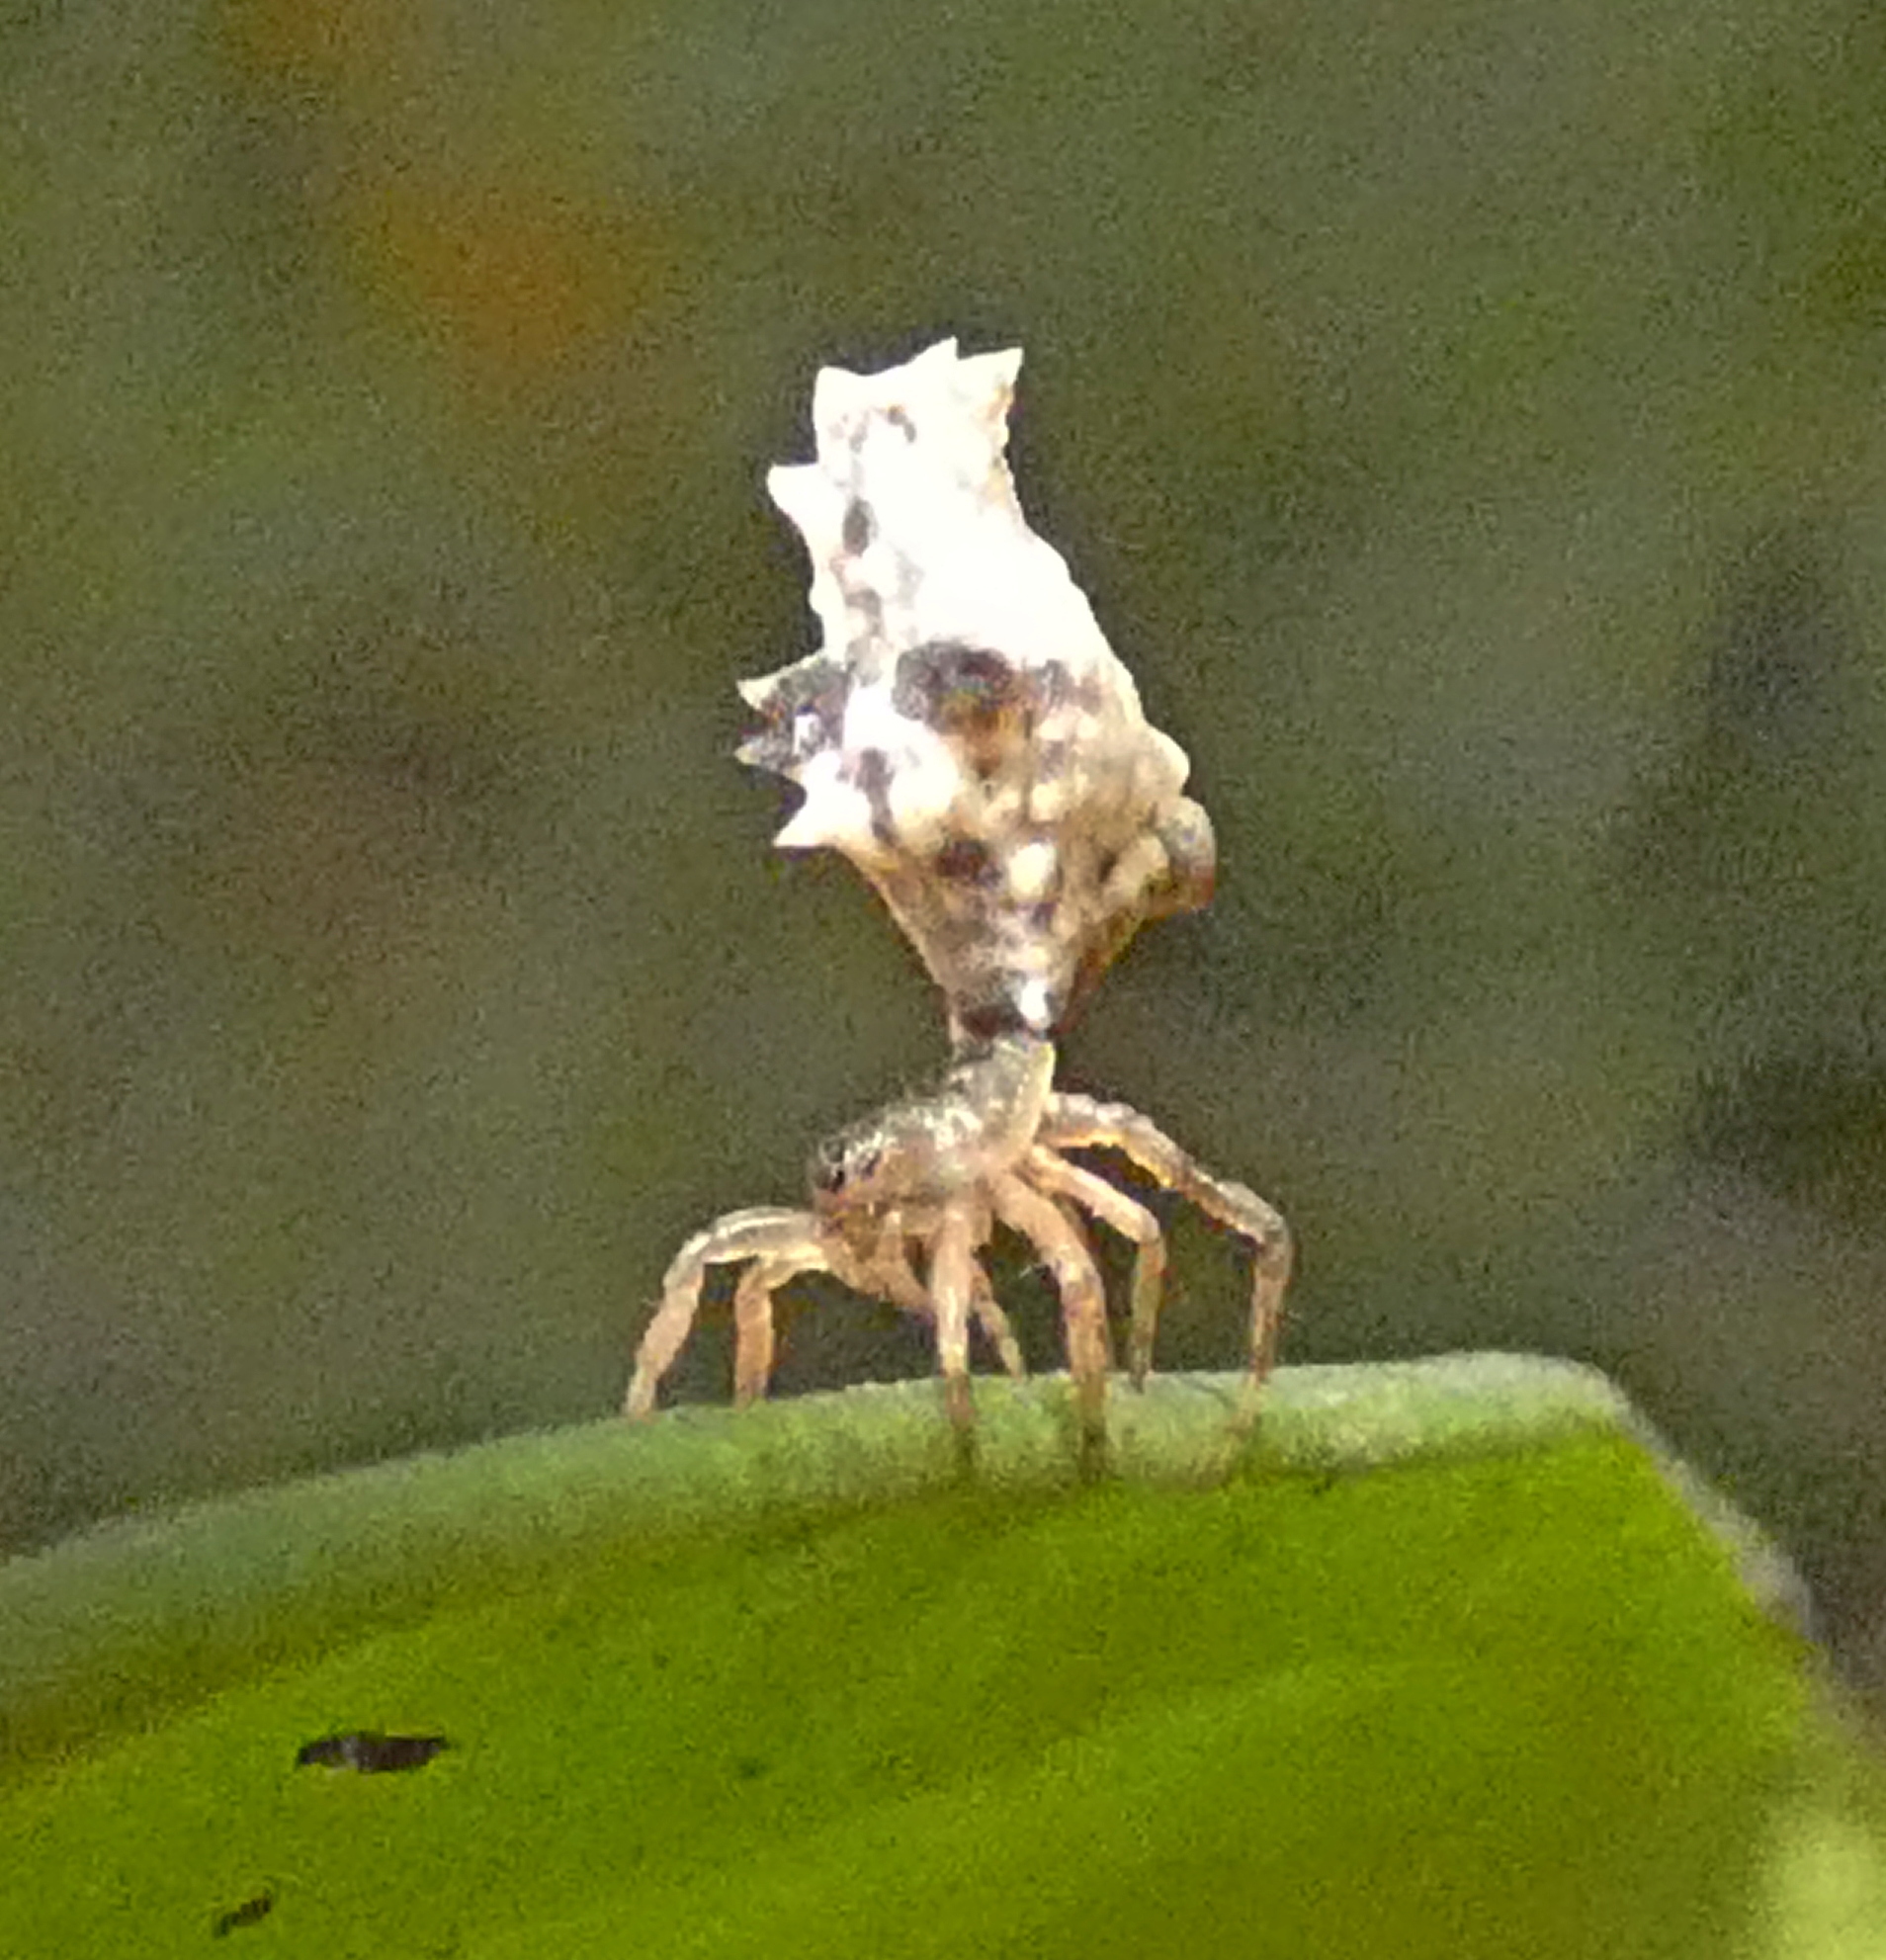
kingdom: Animalia
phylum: Arthropoda
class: Arachnida
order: Araneae
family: Araneidae
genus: Micrathena
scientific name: Micrathena horrida
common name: Orb weavers
